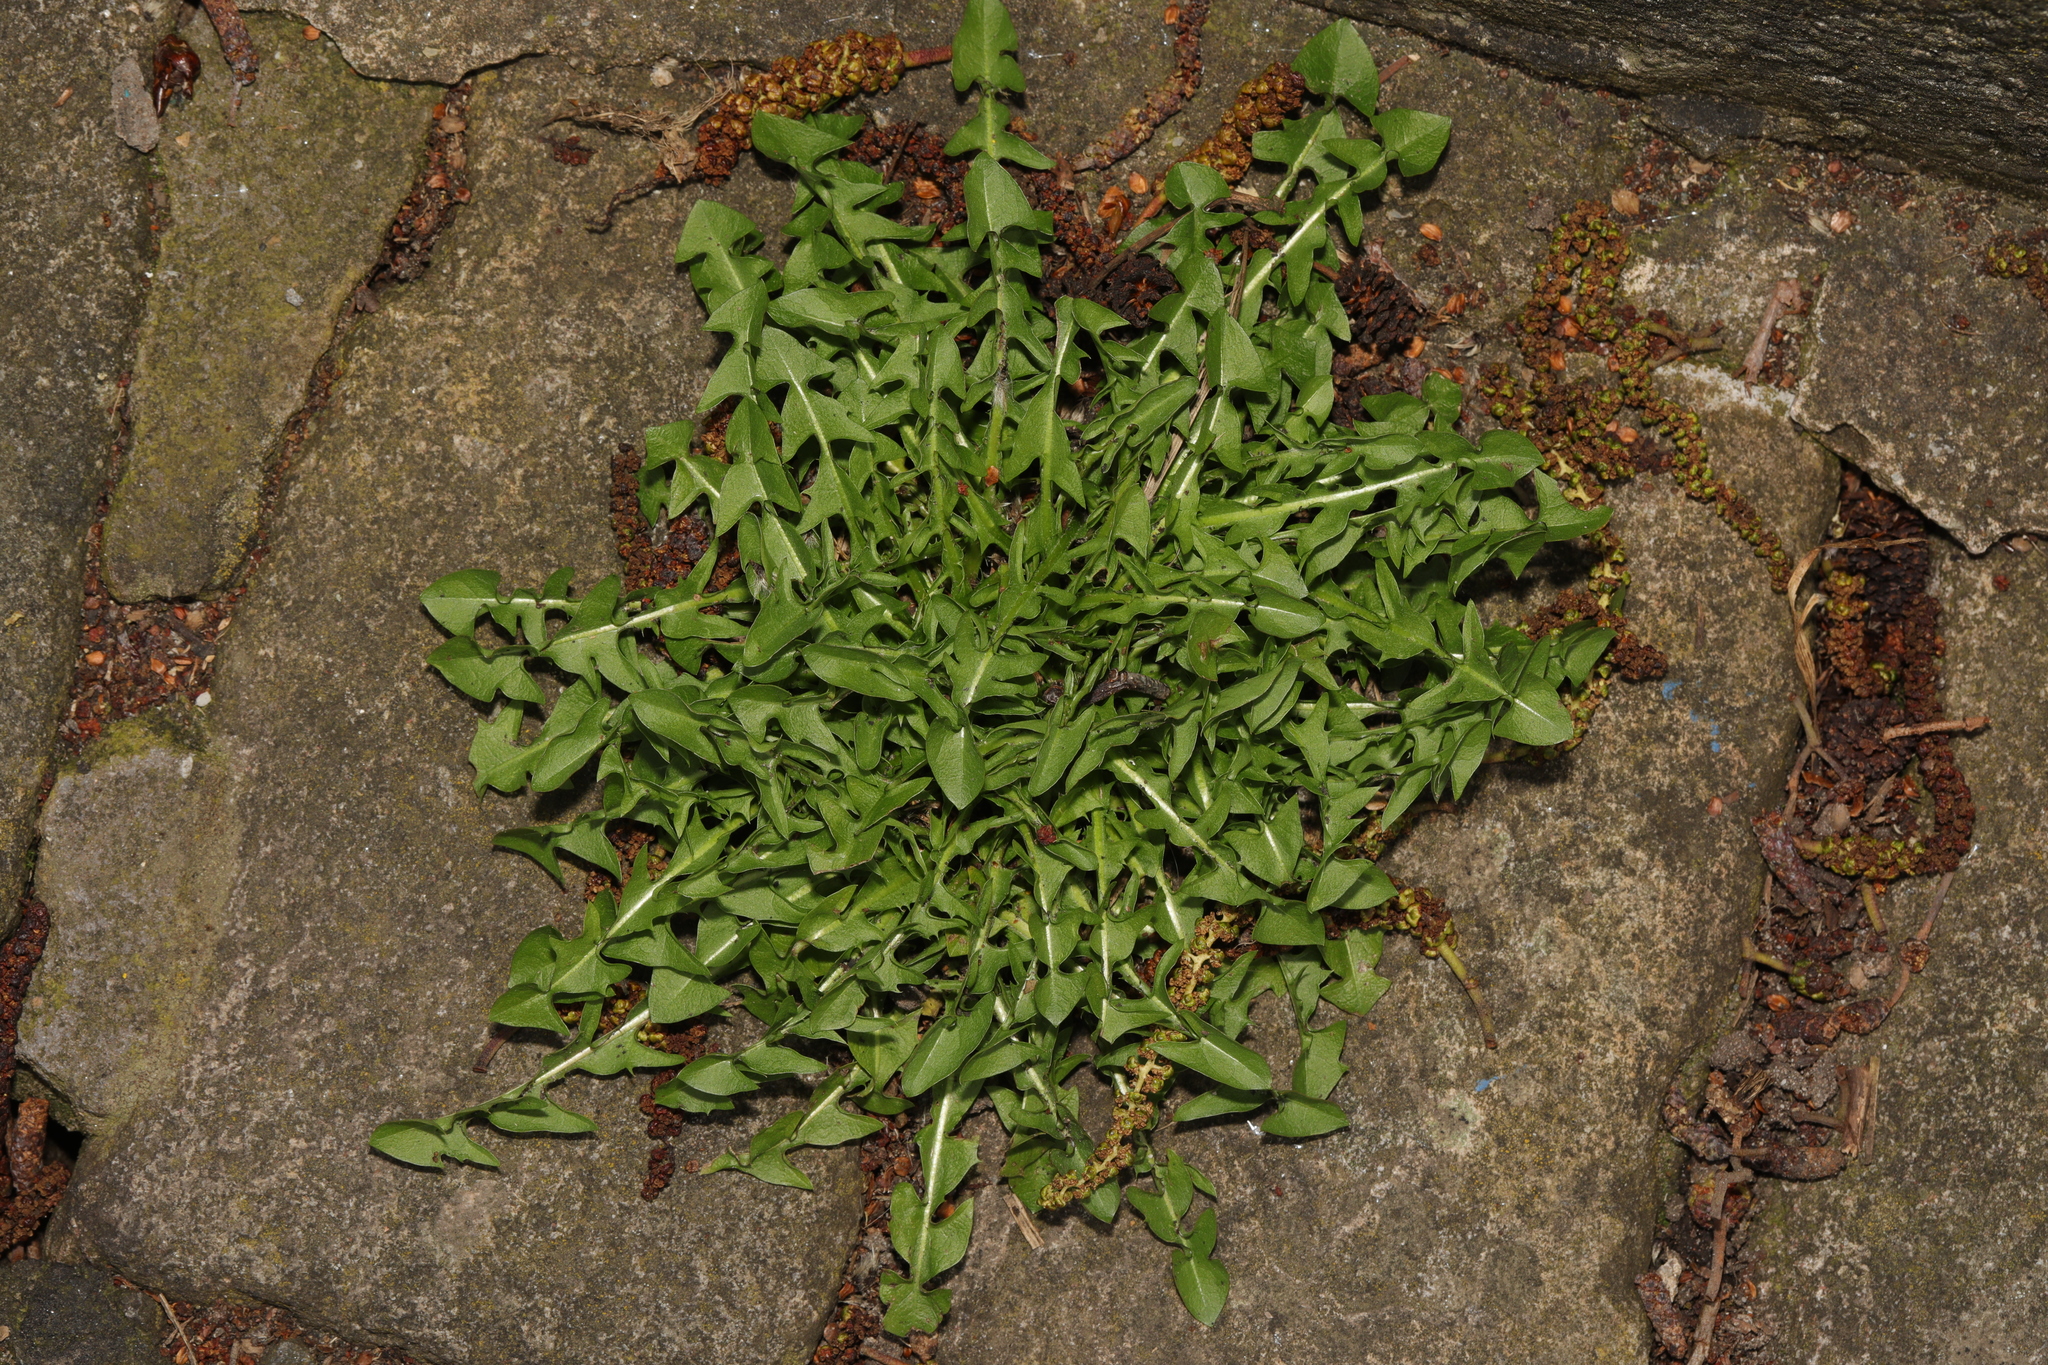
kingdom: Plantae
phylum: Tracheophyta
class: Magnoliopsida
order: Asterales
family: Asteraceae
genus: Taraxacum
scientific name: Taraxacum officinale
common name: Common dandelion
